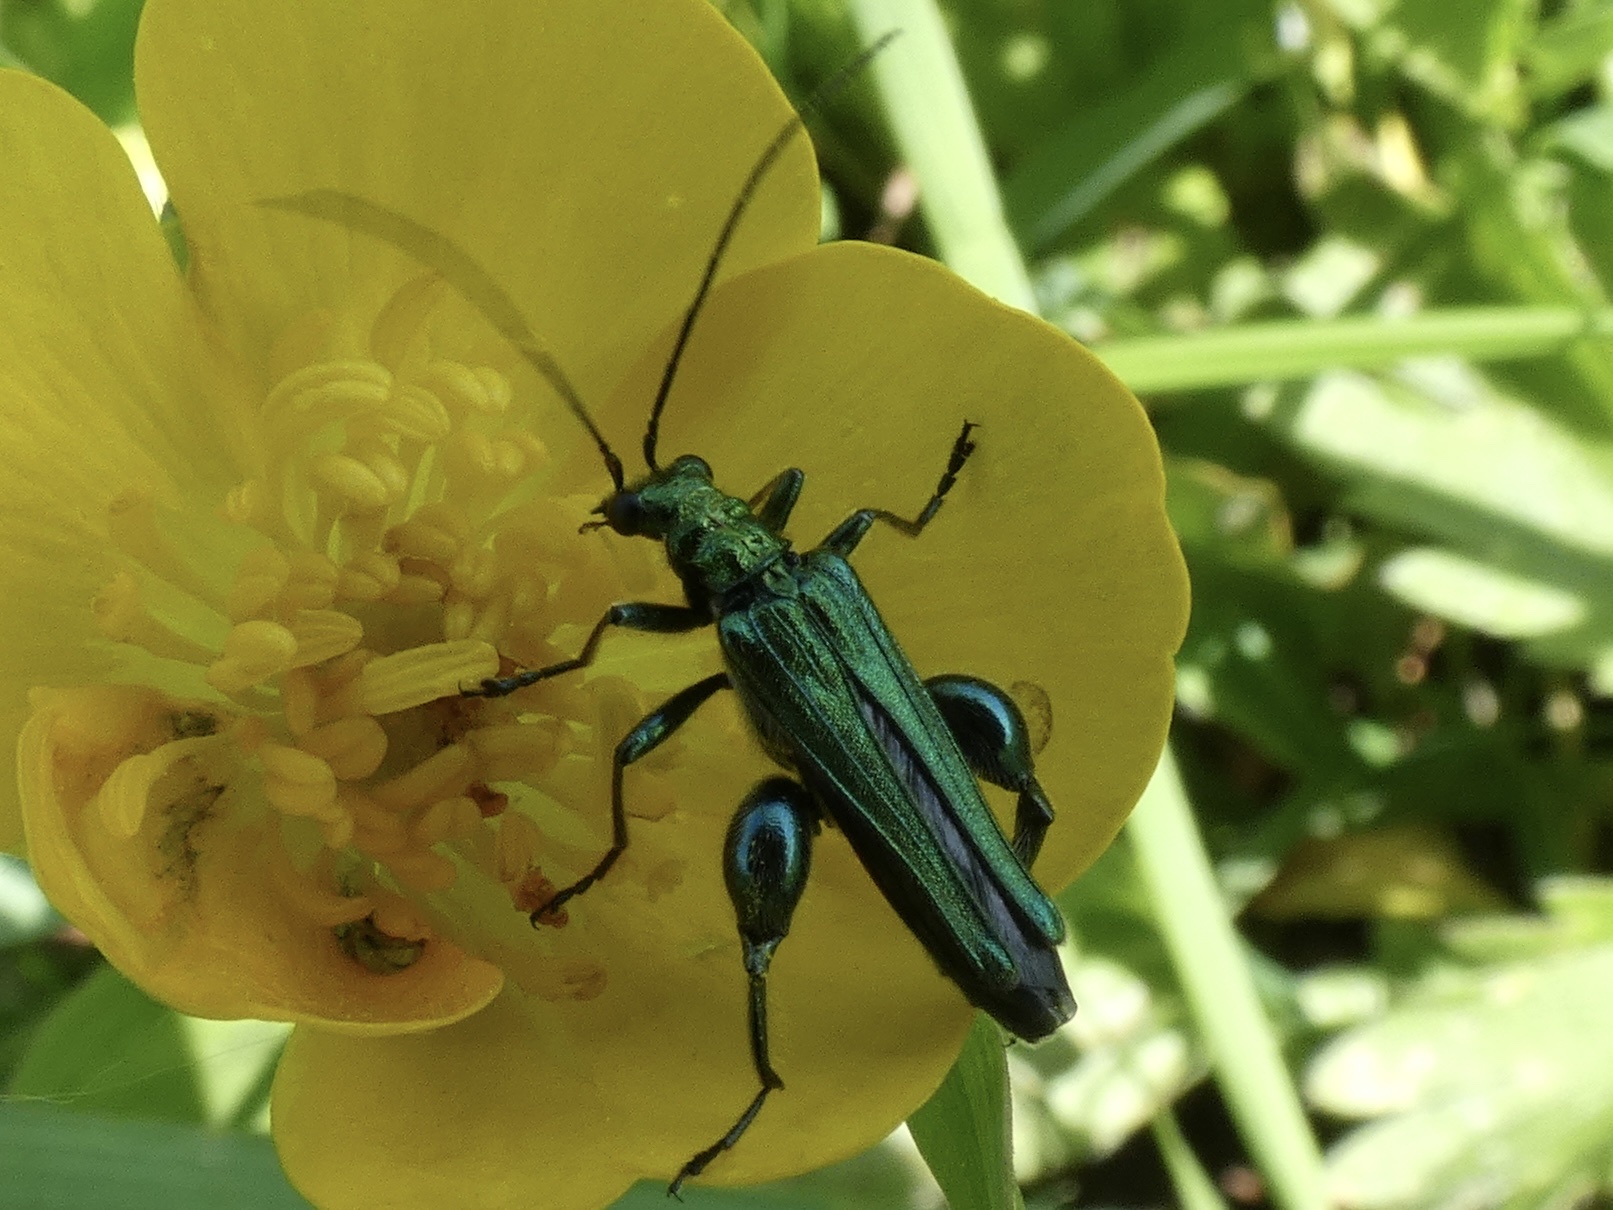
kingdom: Animalia
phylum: Arthropoda
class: Insecta
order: Coleoptera
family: Oedemeridae
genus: Oedemera
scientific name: Oedemera nobilis
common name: Swollen-thighed beetle
